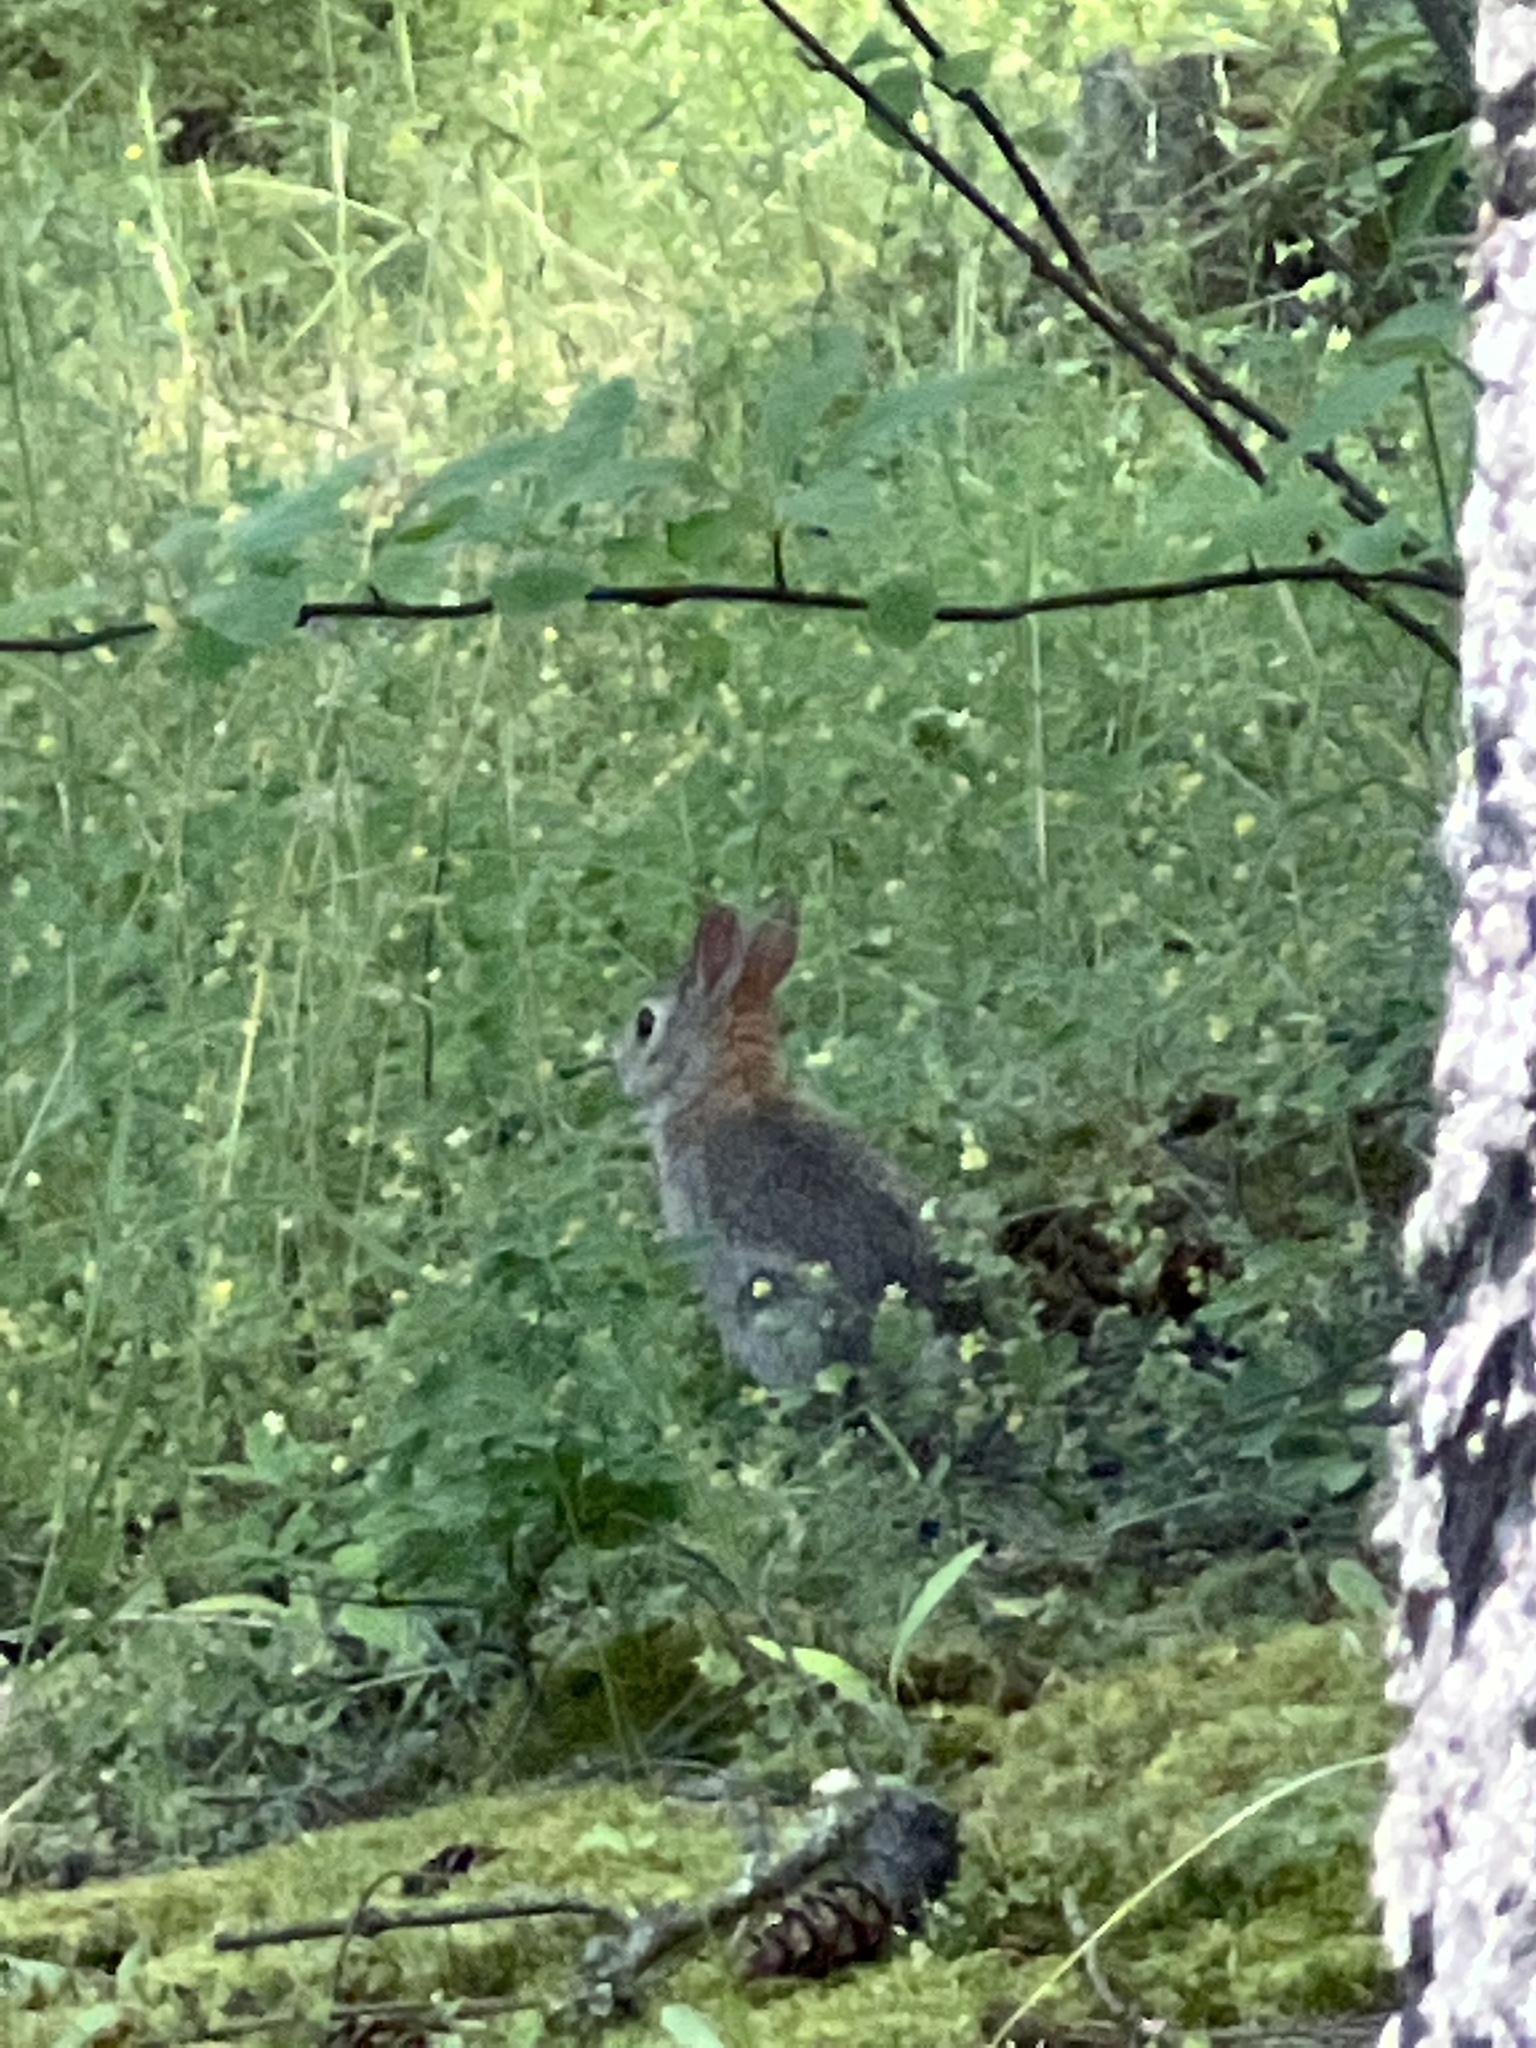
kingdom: Animalia
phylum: Chordata
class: Mammalia
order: Lagomorpha
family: Leporidae
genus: Sylvilagus
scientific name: Sylvilagus floridanus
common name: Eastern cottontail
